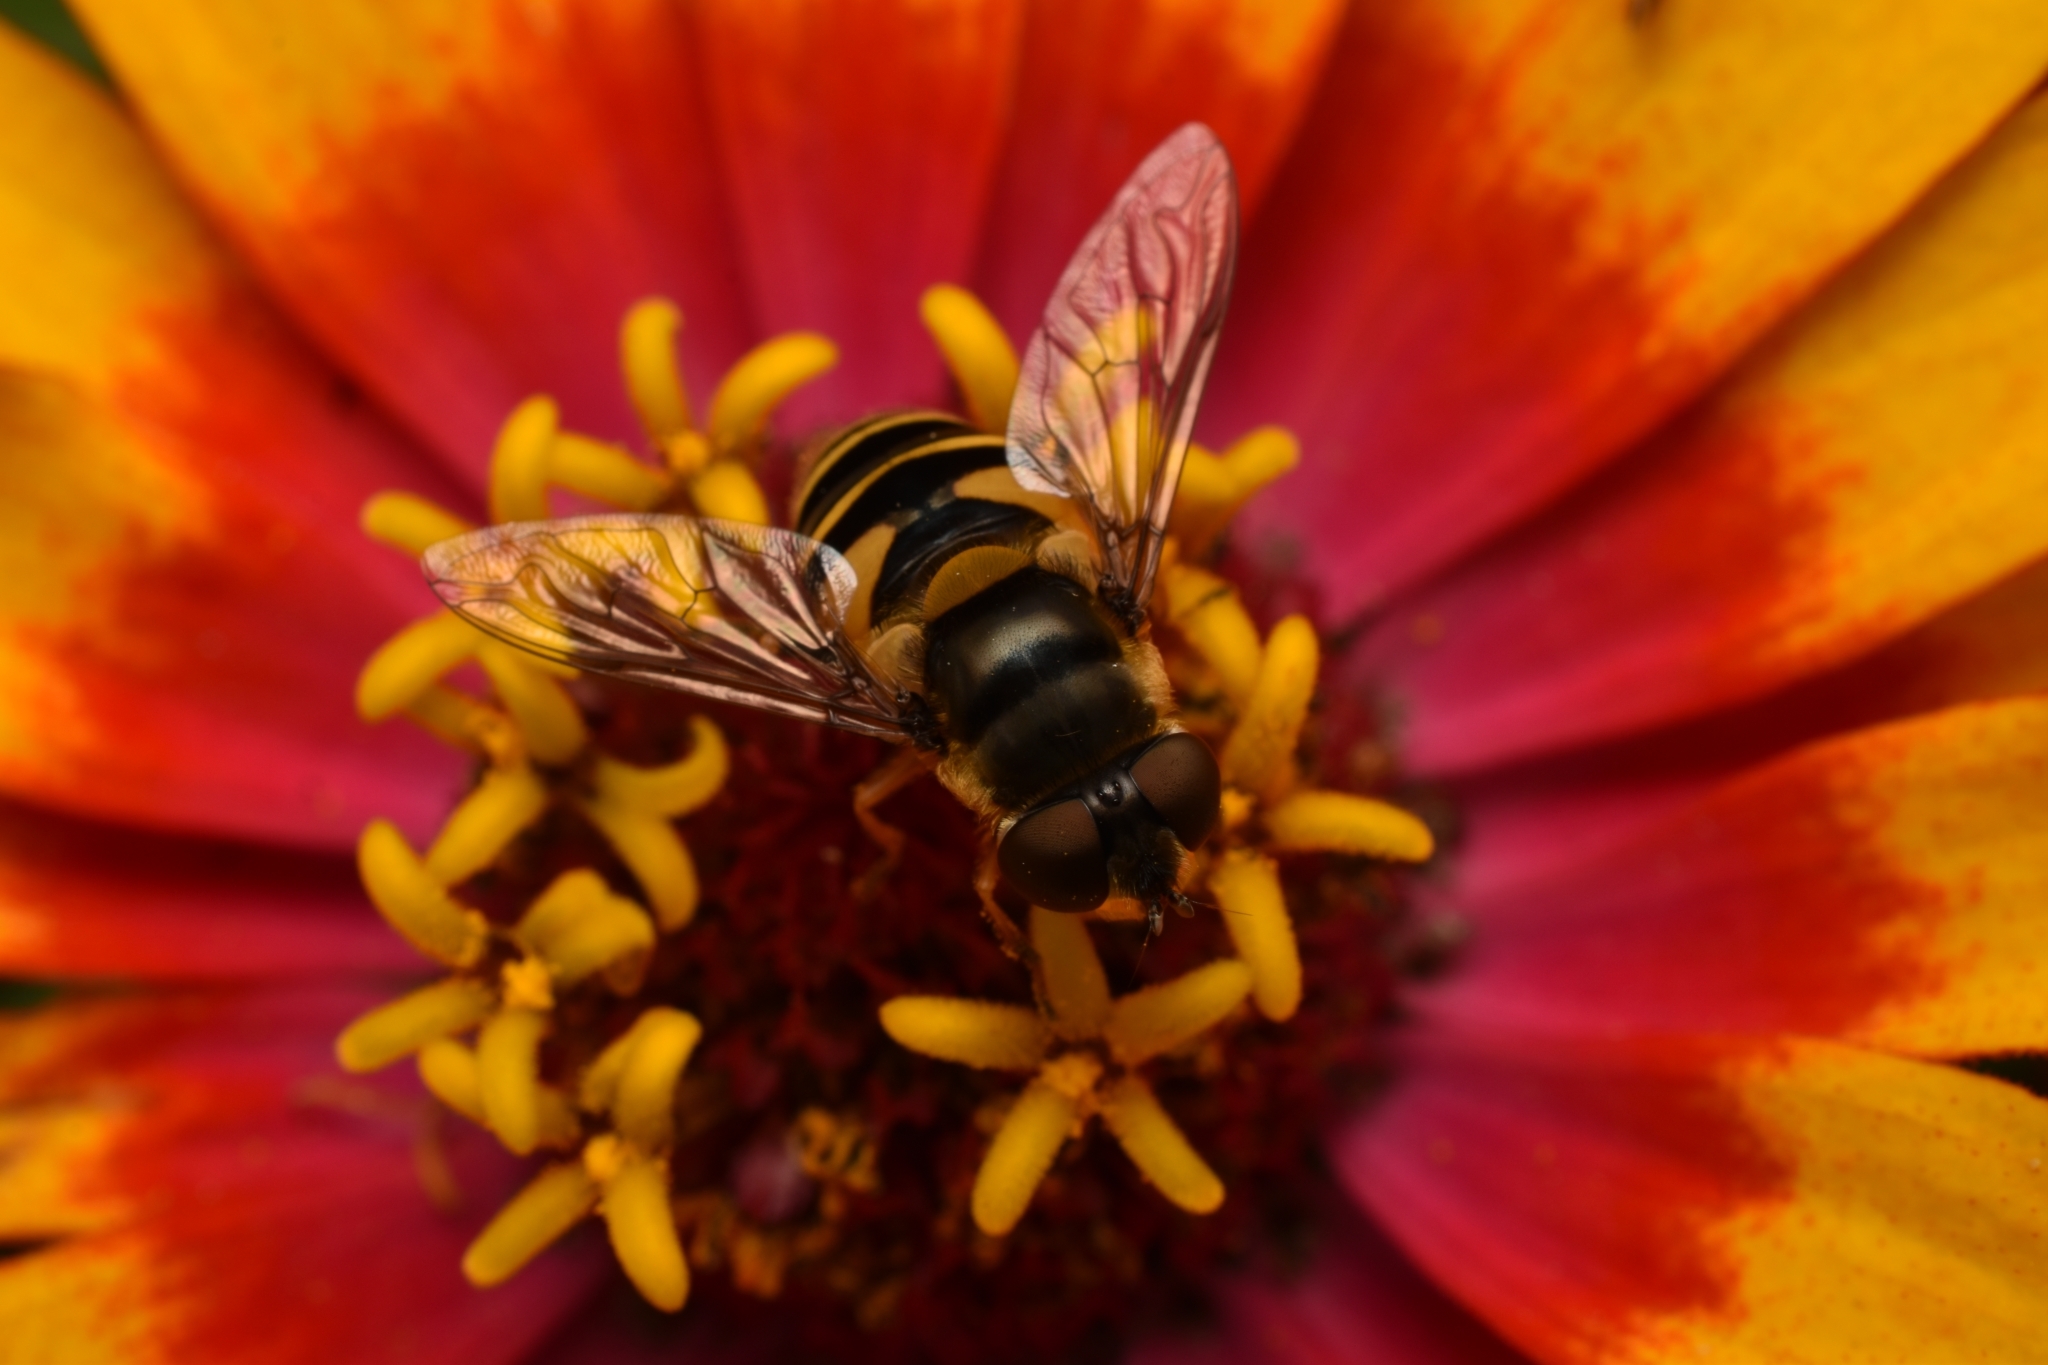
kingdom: Animalia
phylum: Arthropoda
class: Insecta
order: Diptera
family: Syrphidae
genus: Eristalis
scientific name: Eristalis transversa
